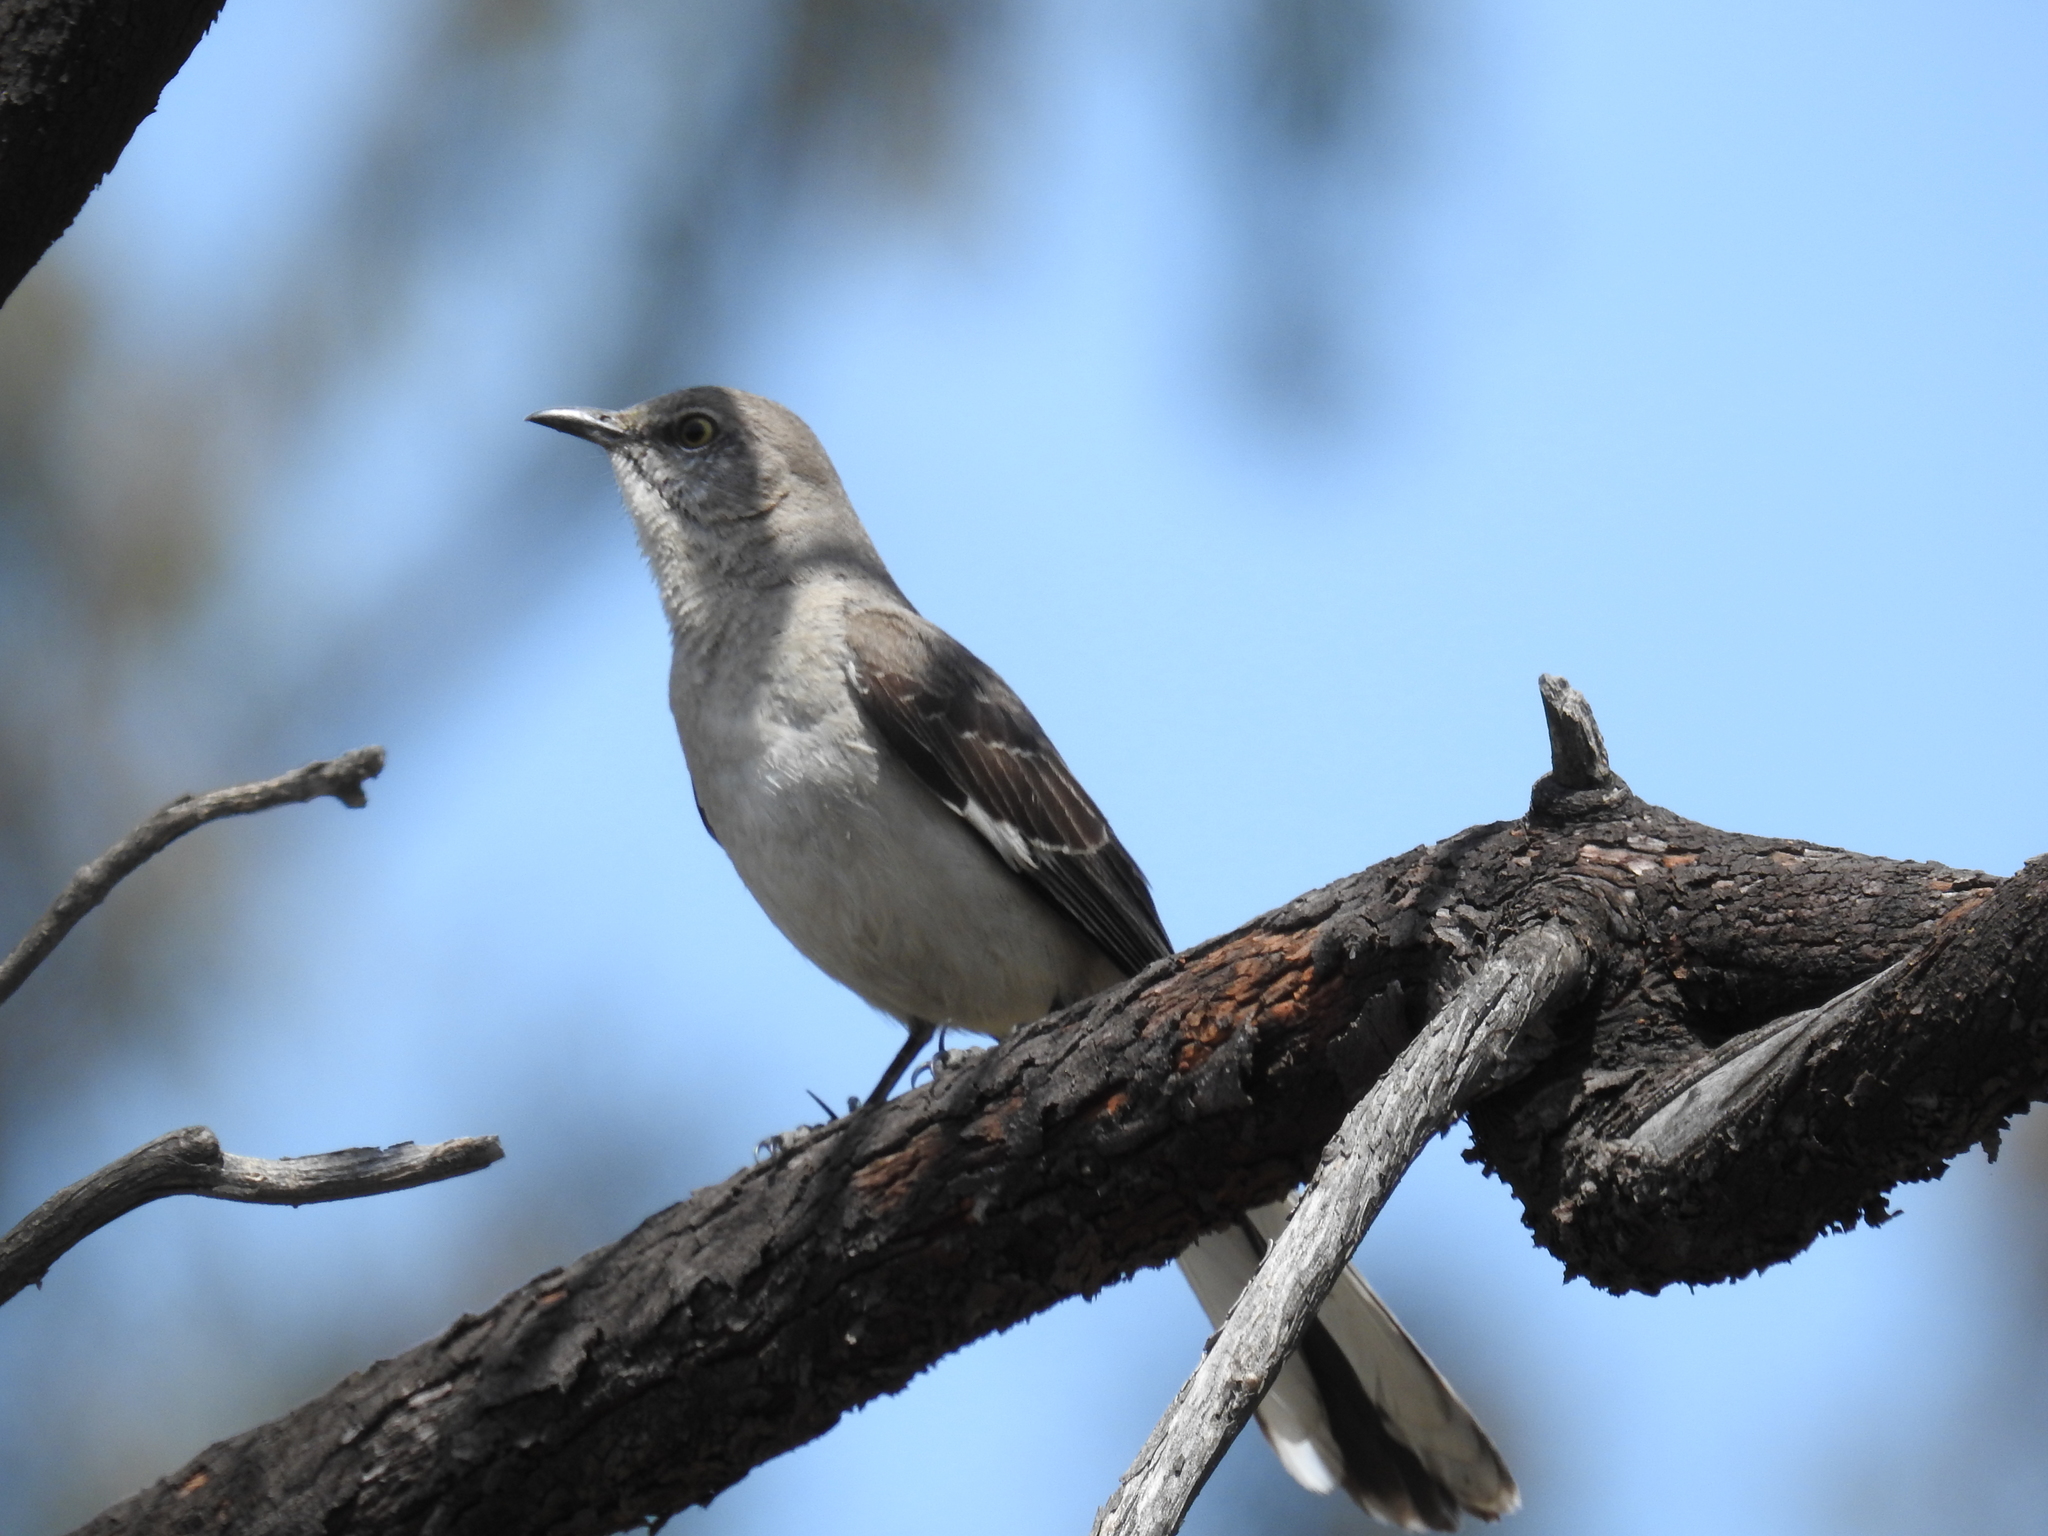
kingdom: Animalia
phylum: Chordata
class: Aves
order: Passeriformes
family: Mimidae
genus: Mimus
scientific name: Mimus polyglottos
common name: Northern mockingbird
